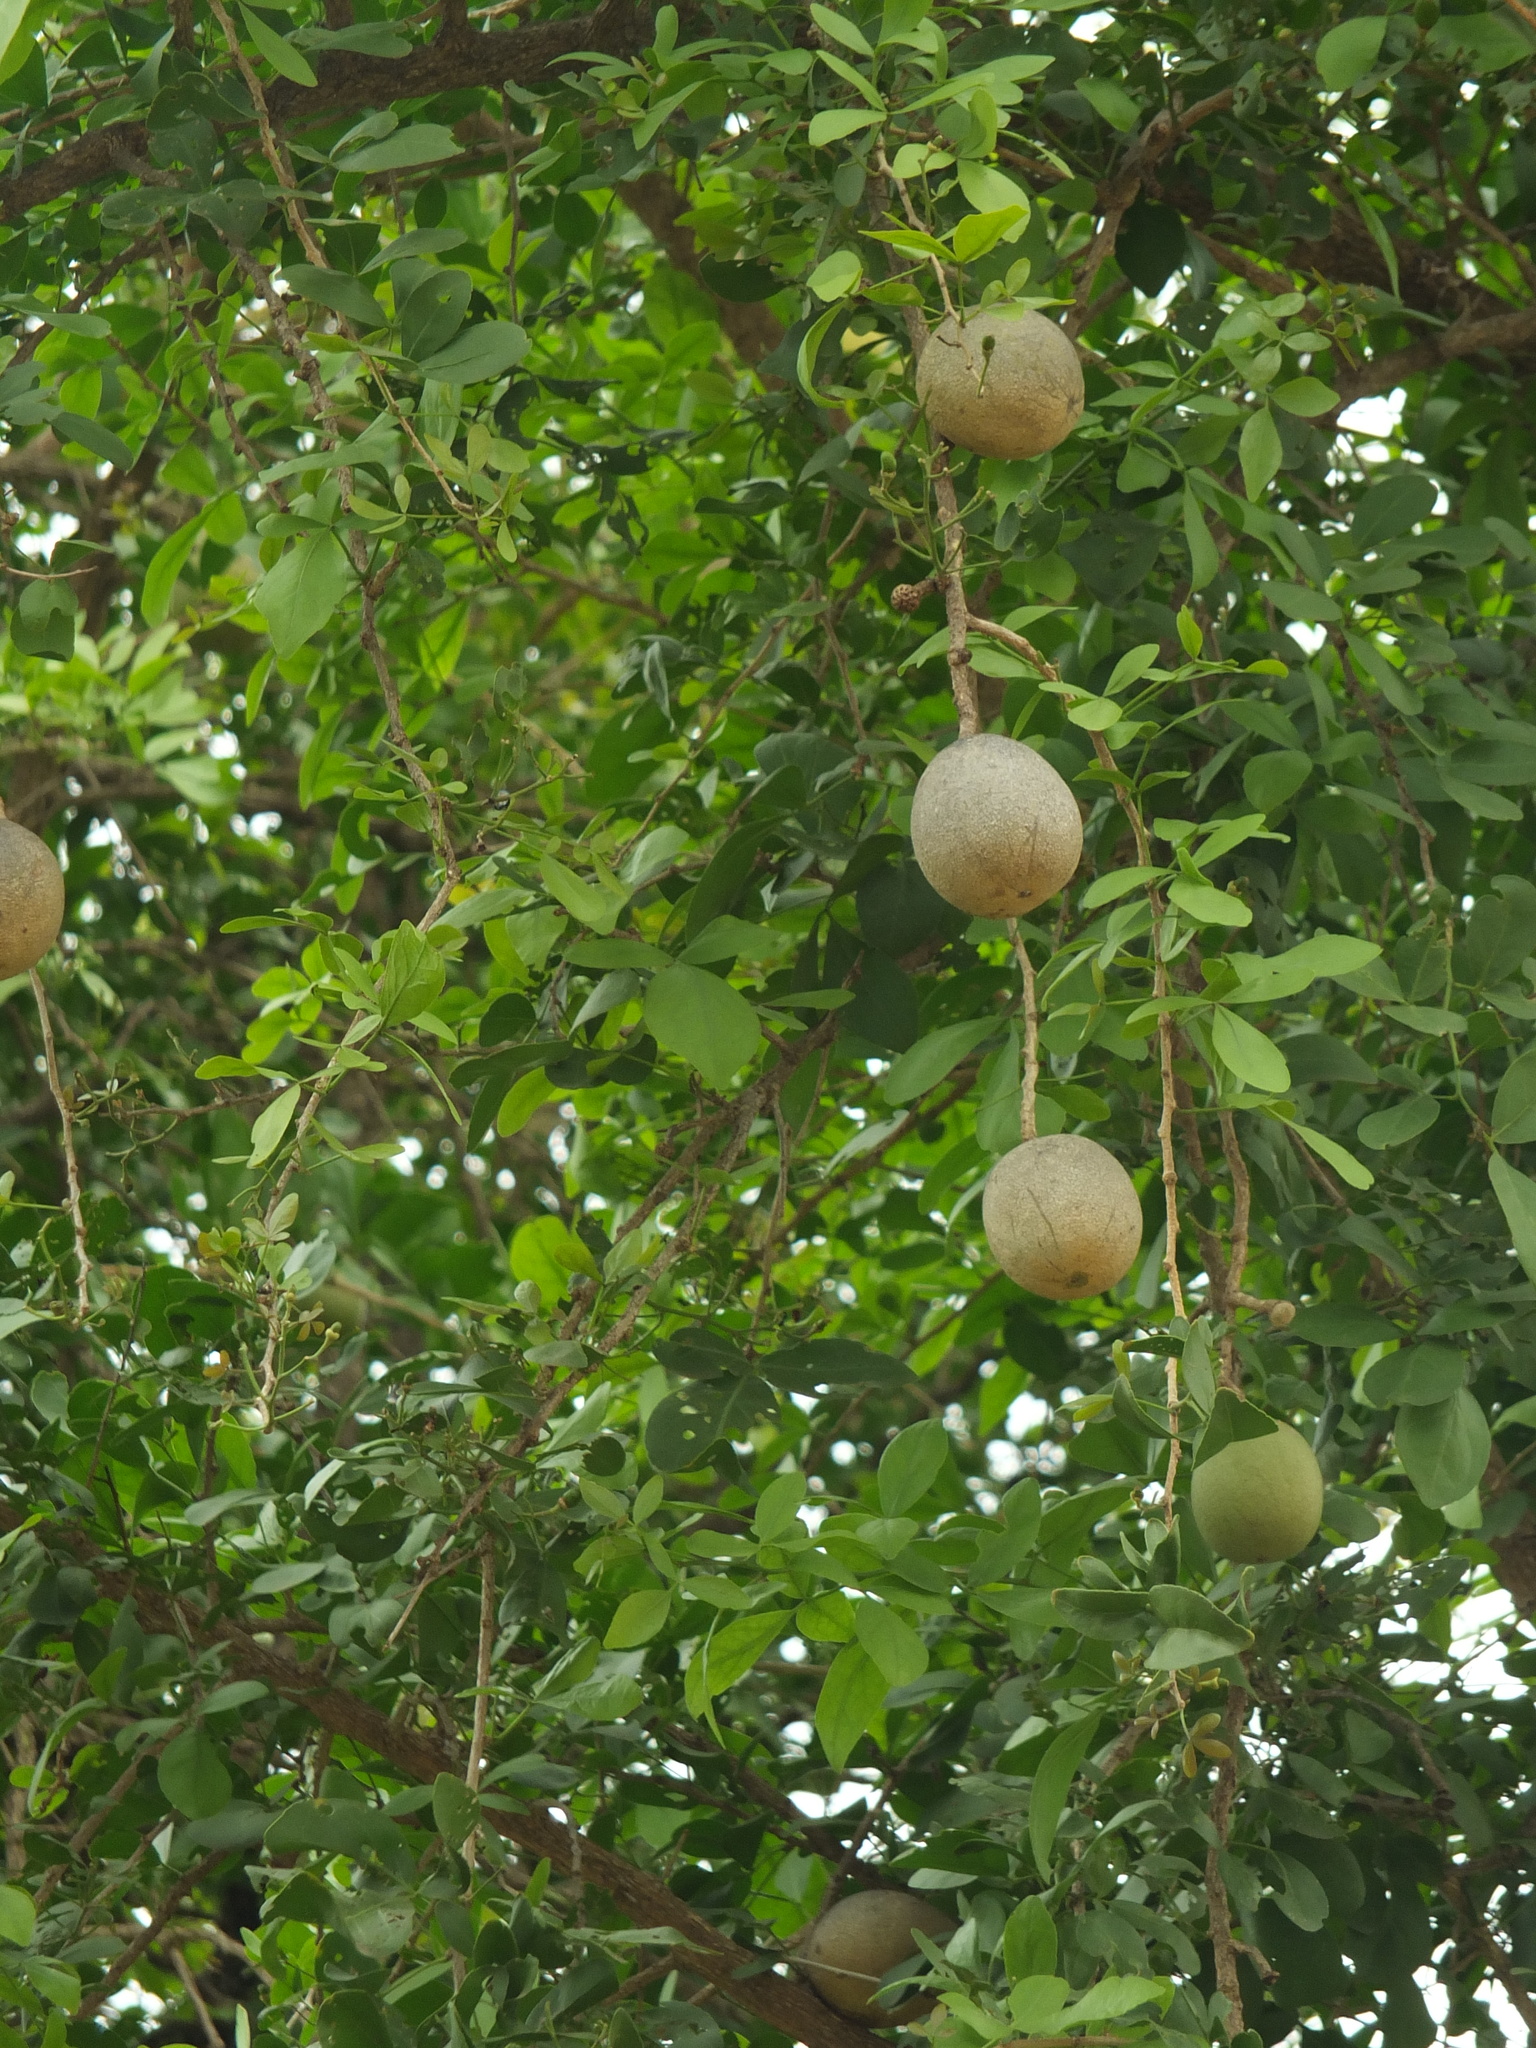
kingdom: Plantae
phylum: Tracheophyta
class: Magnoliopsida
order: Sapindales
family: Rutaceae
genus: Aegle
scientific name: Aegle marmelos
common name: Bael
